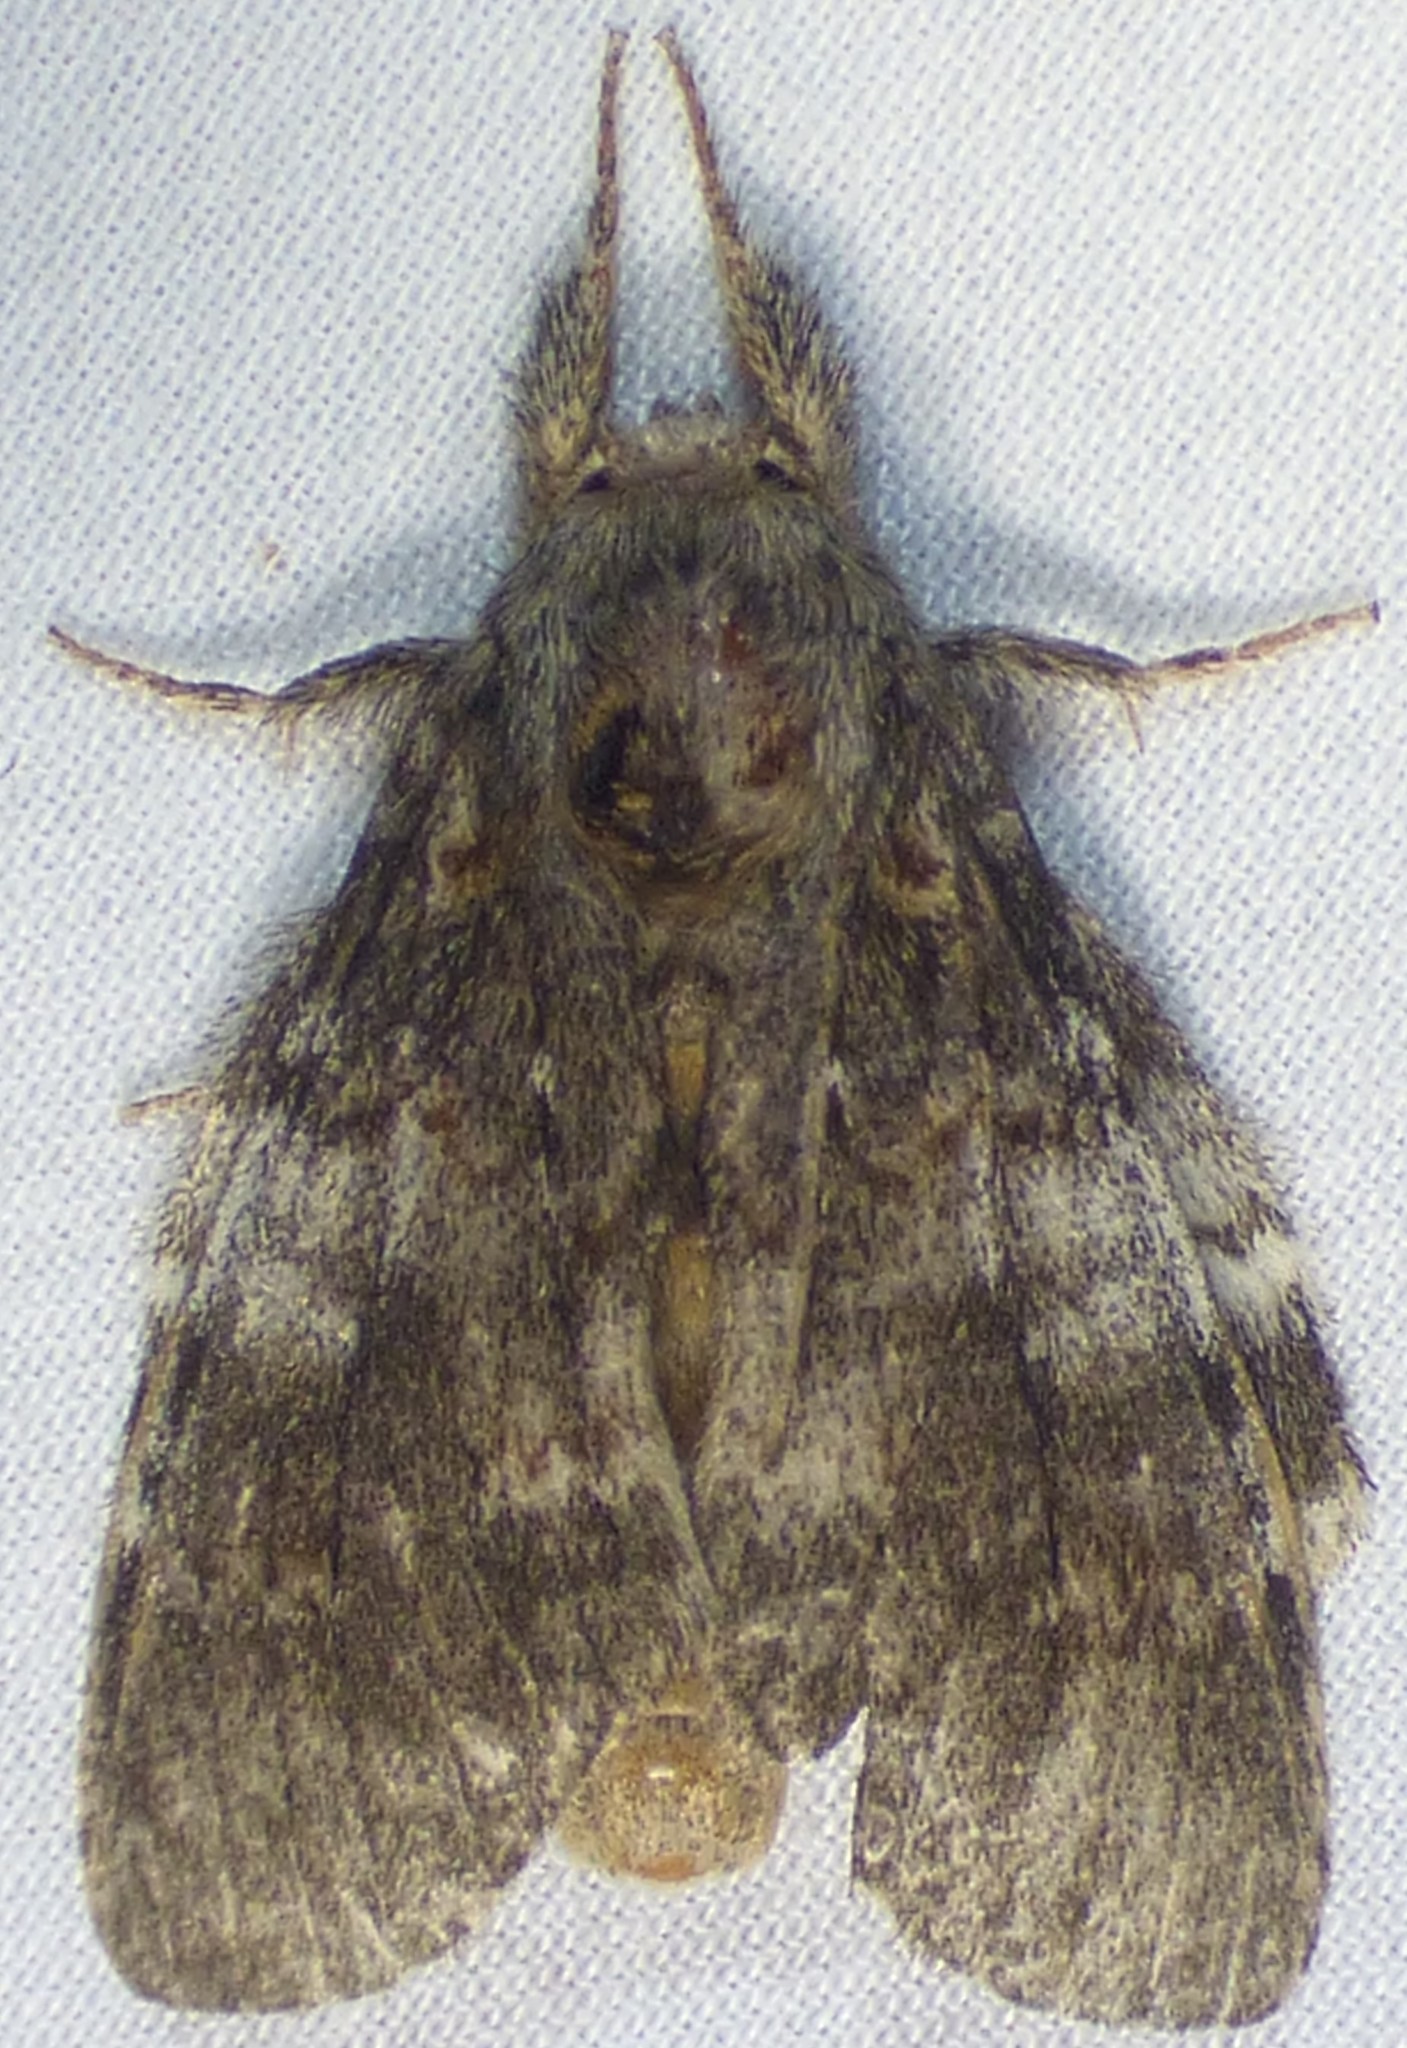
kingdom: Animalia
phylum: Arthropoda
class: Insecta
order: Lepidoptera
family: Notodontidae
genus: Peridea
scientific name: Peridea angulosa
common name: Angulose prominent
